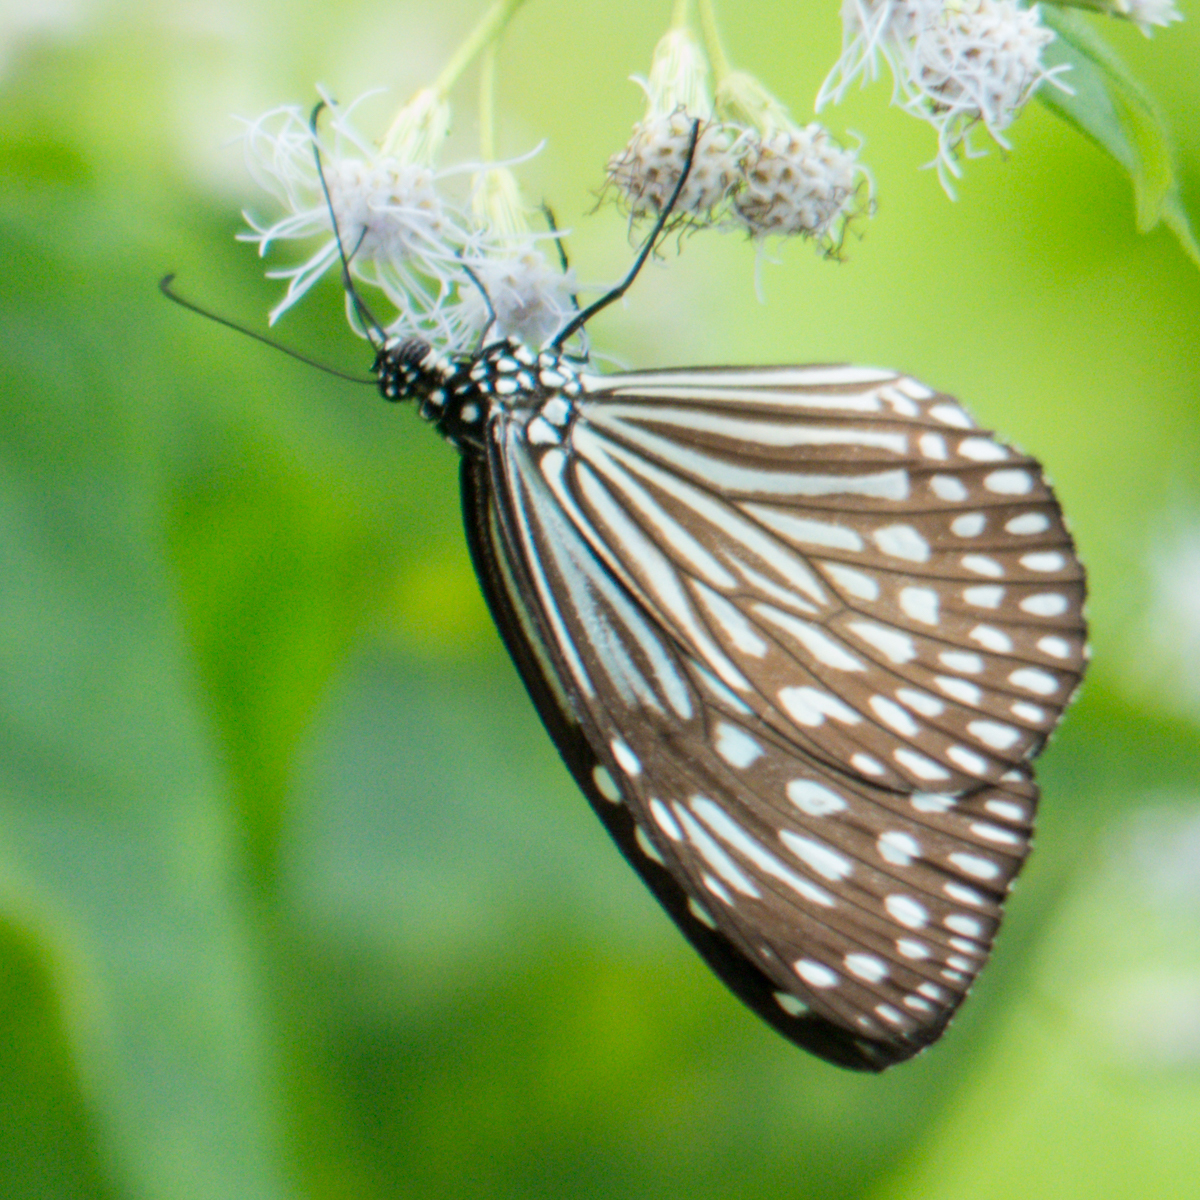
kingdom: Animalia
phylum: Arthropoda
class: Insecta
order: Lepidoptera
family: Nymphalidae
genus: Parantica
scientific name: Parantica agleoides
